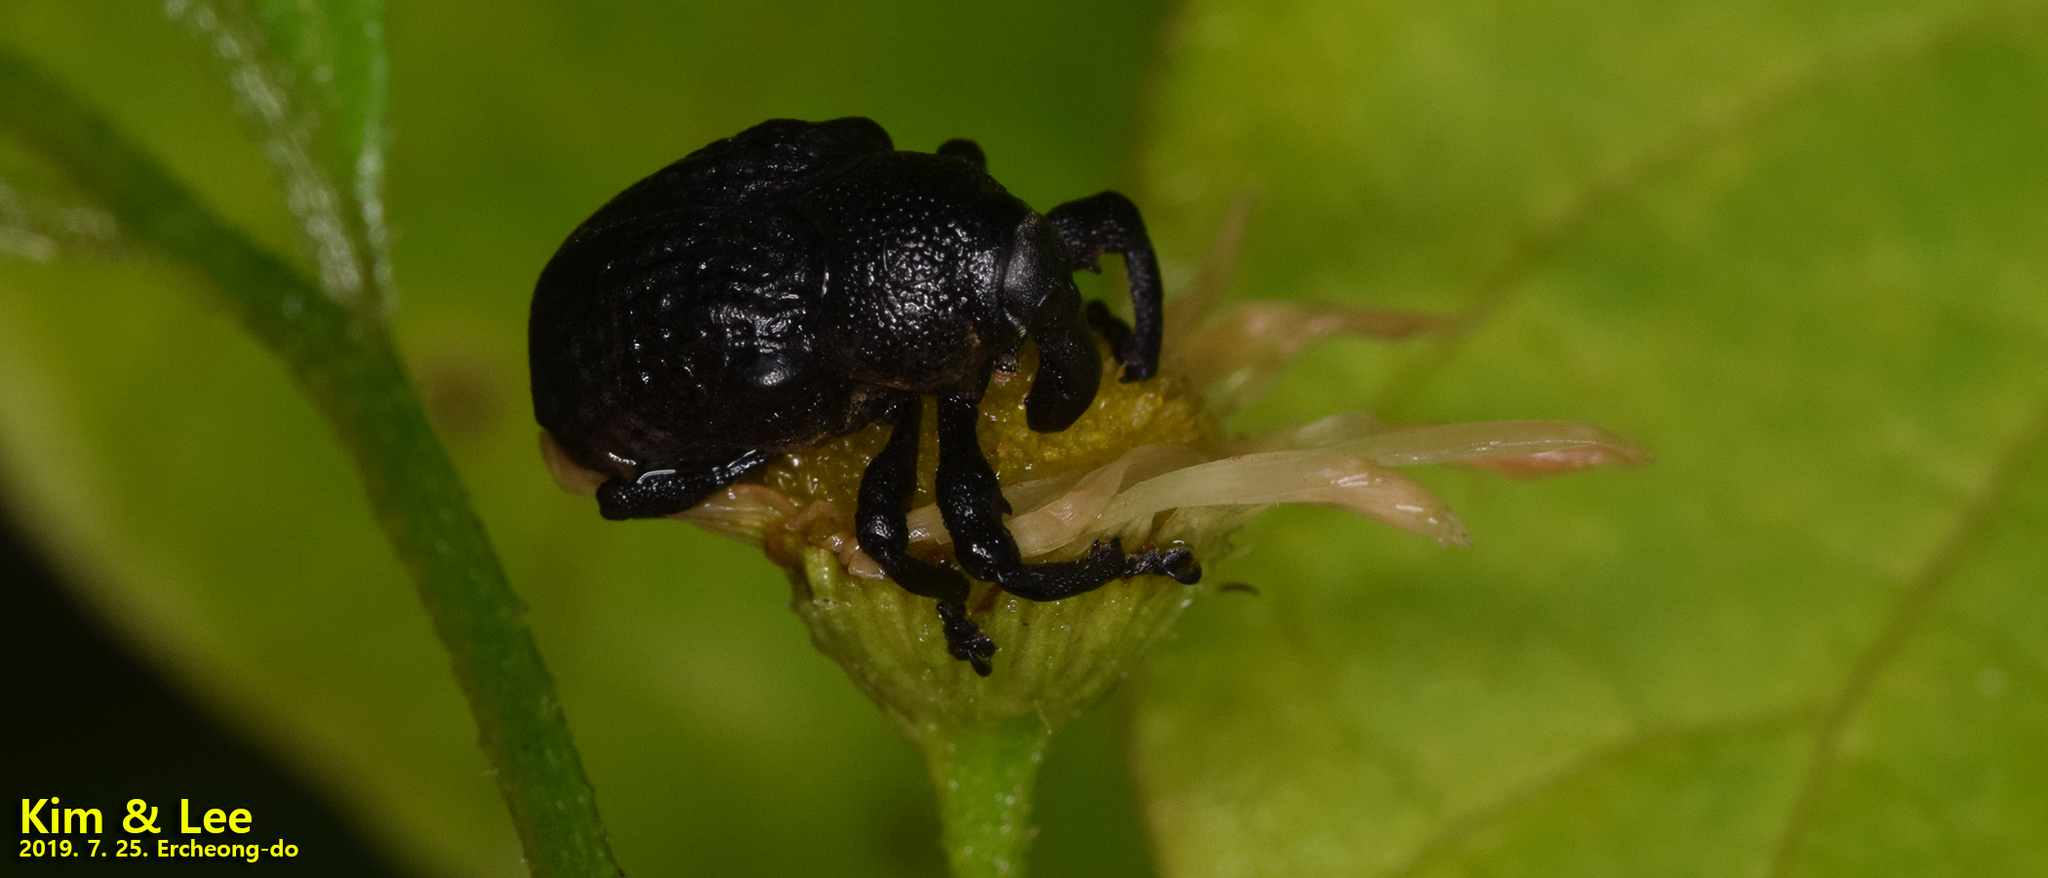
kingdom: Animalia
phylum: Arthropoda
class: Insecta
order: Coleoptera
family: Curculionidae
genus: Alcides
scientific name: Alcides trifidus
